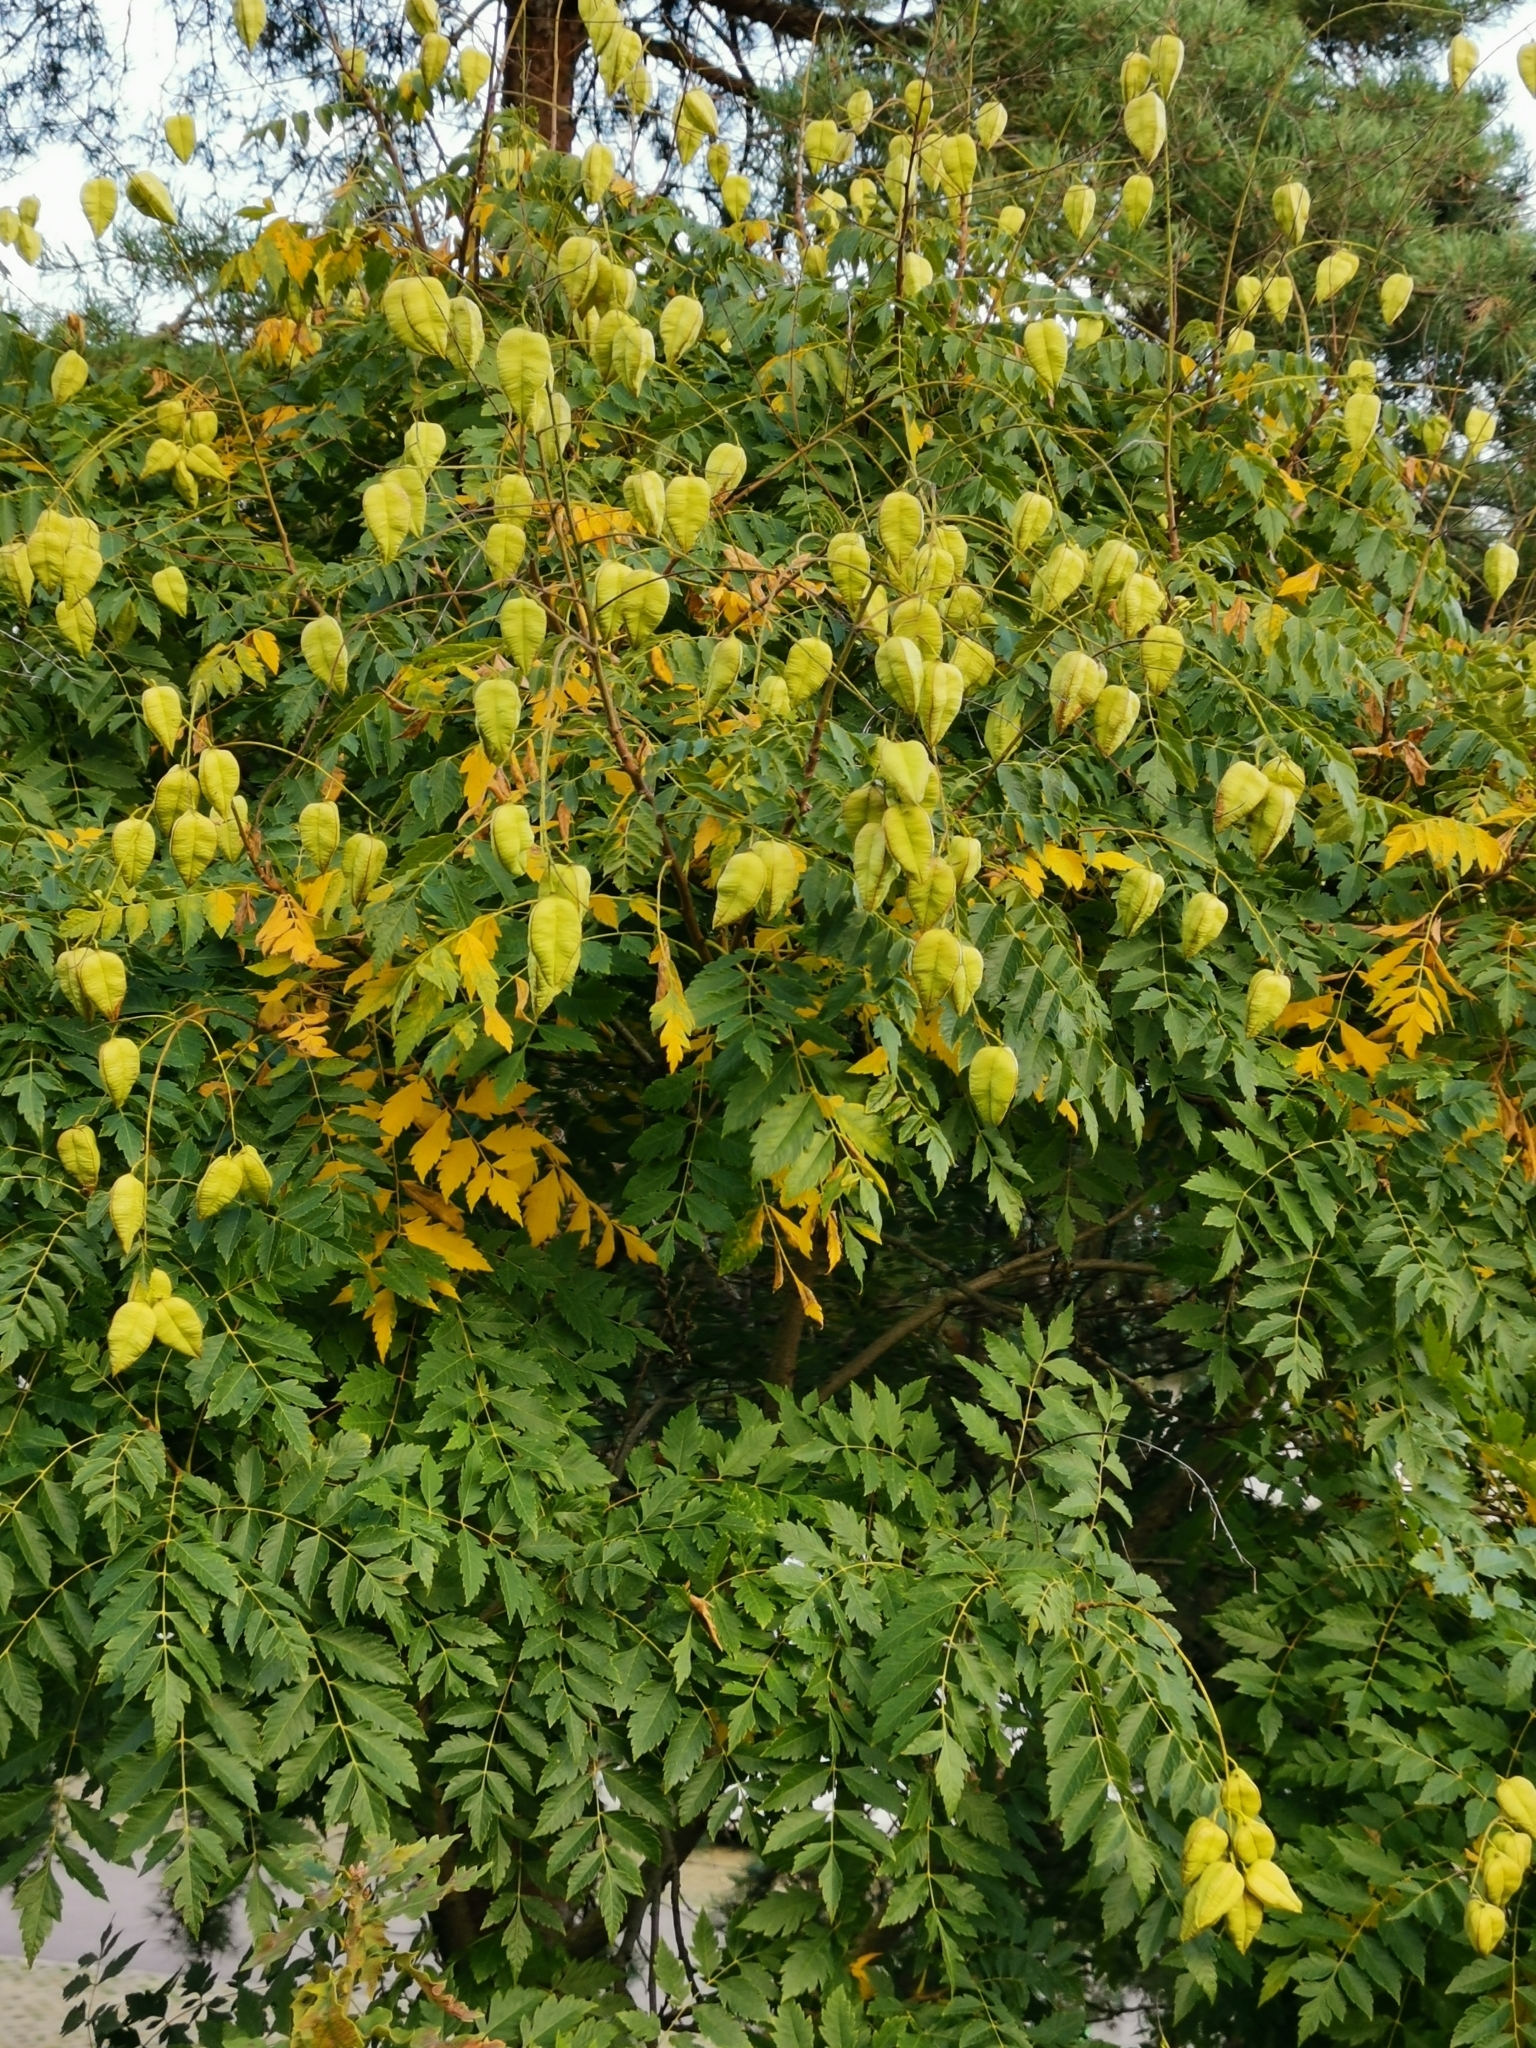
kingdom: Plantae
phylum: Tracheophyta
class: Magnoliopsida
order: Sapindales
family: Sapindaceae
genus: Koelreuteria
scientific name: Koelreuteria paniculata
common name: Pride-of-india
